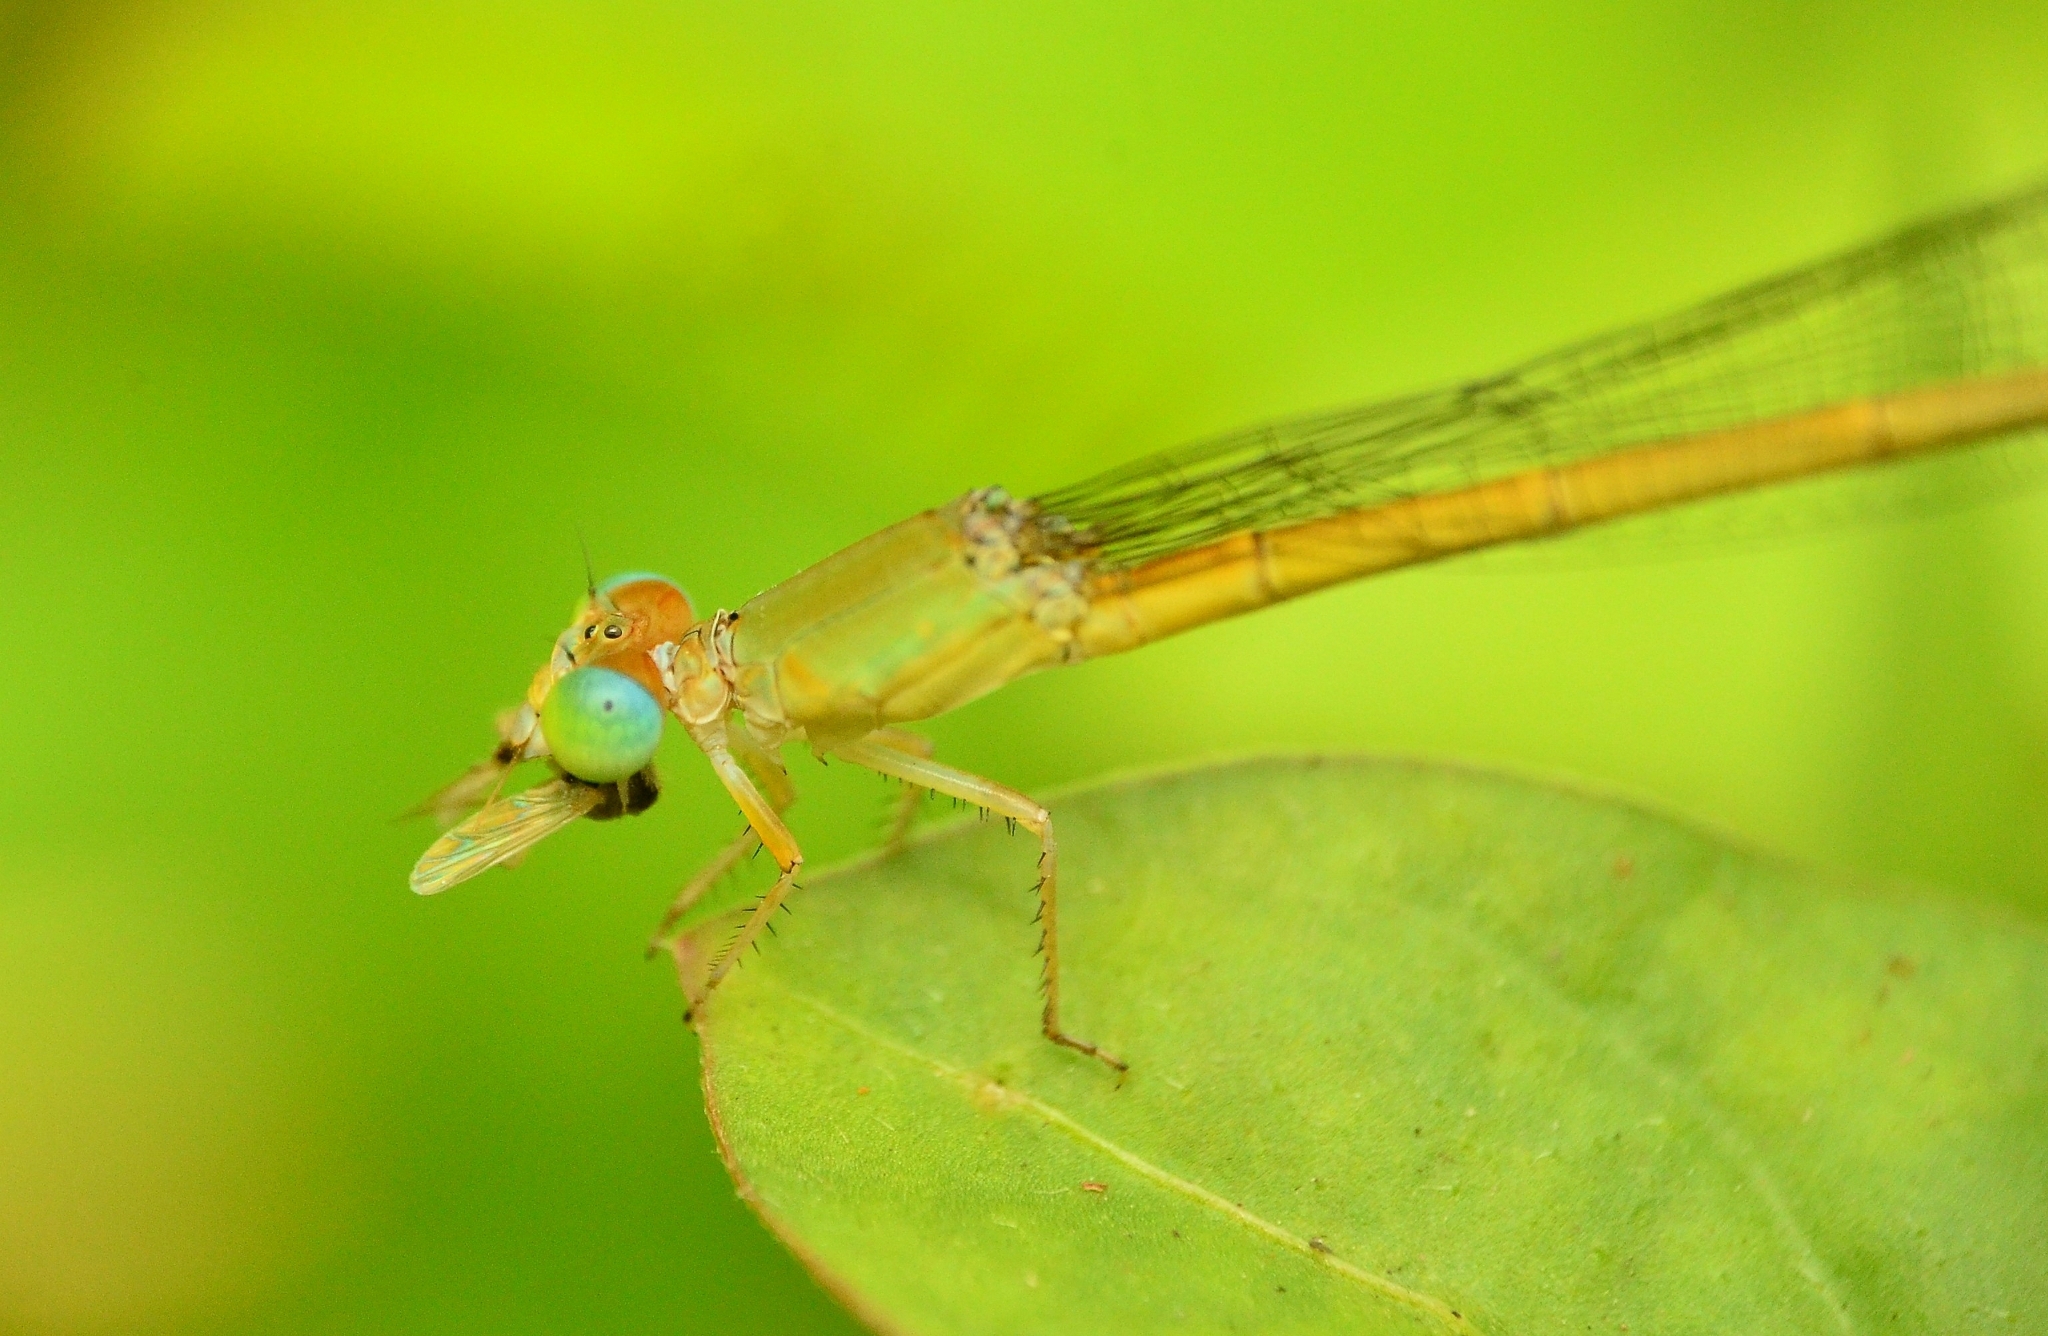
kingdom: Animalia
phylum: Arthropoda
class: Insecta
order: Odonata
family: Coenagrionidae
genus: Ceriagrion
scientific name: Ceriagrion coromandelianum
